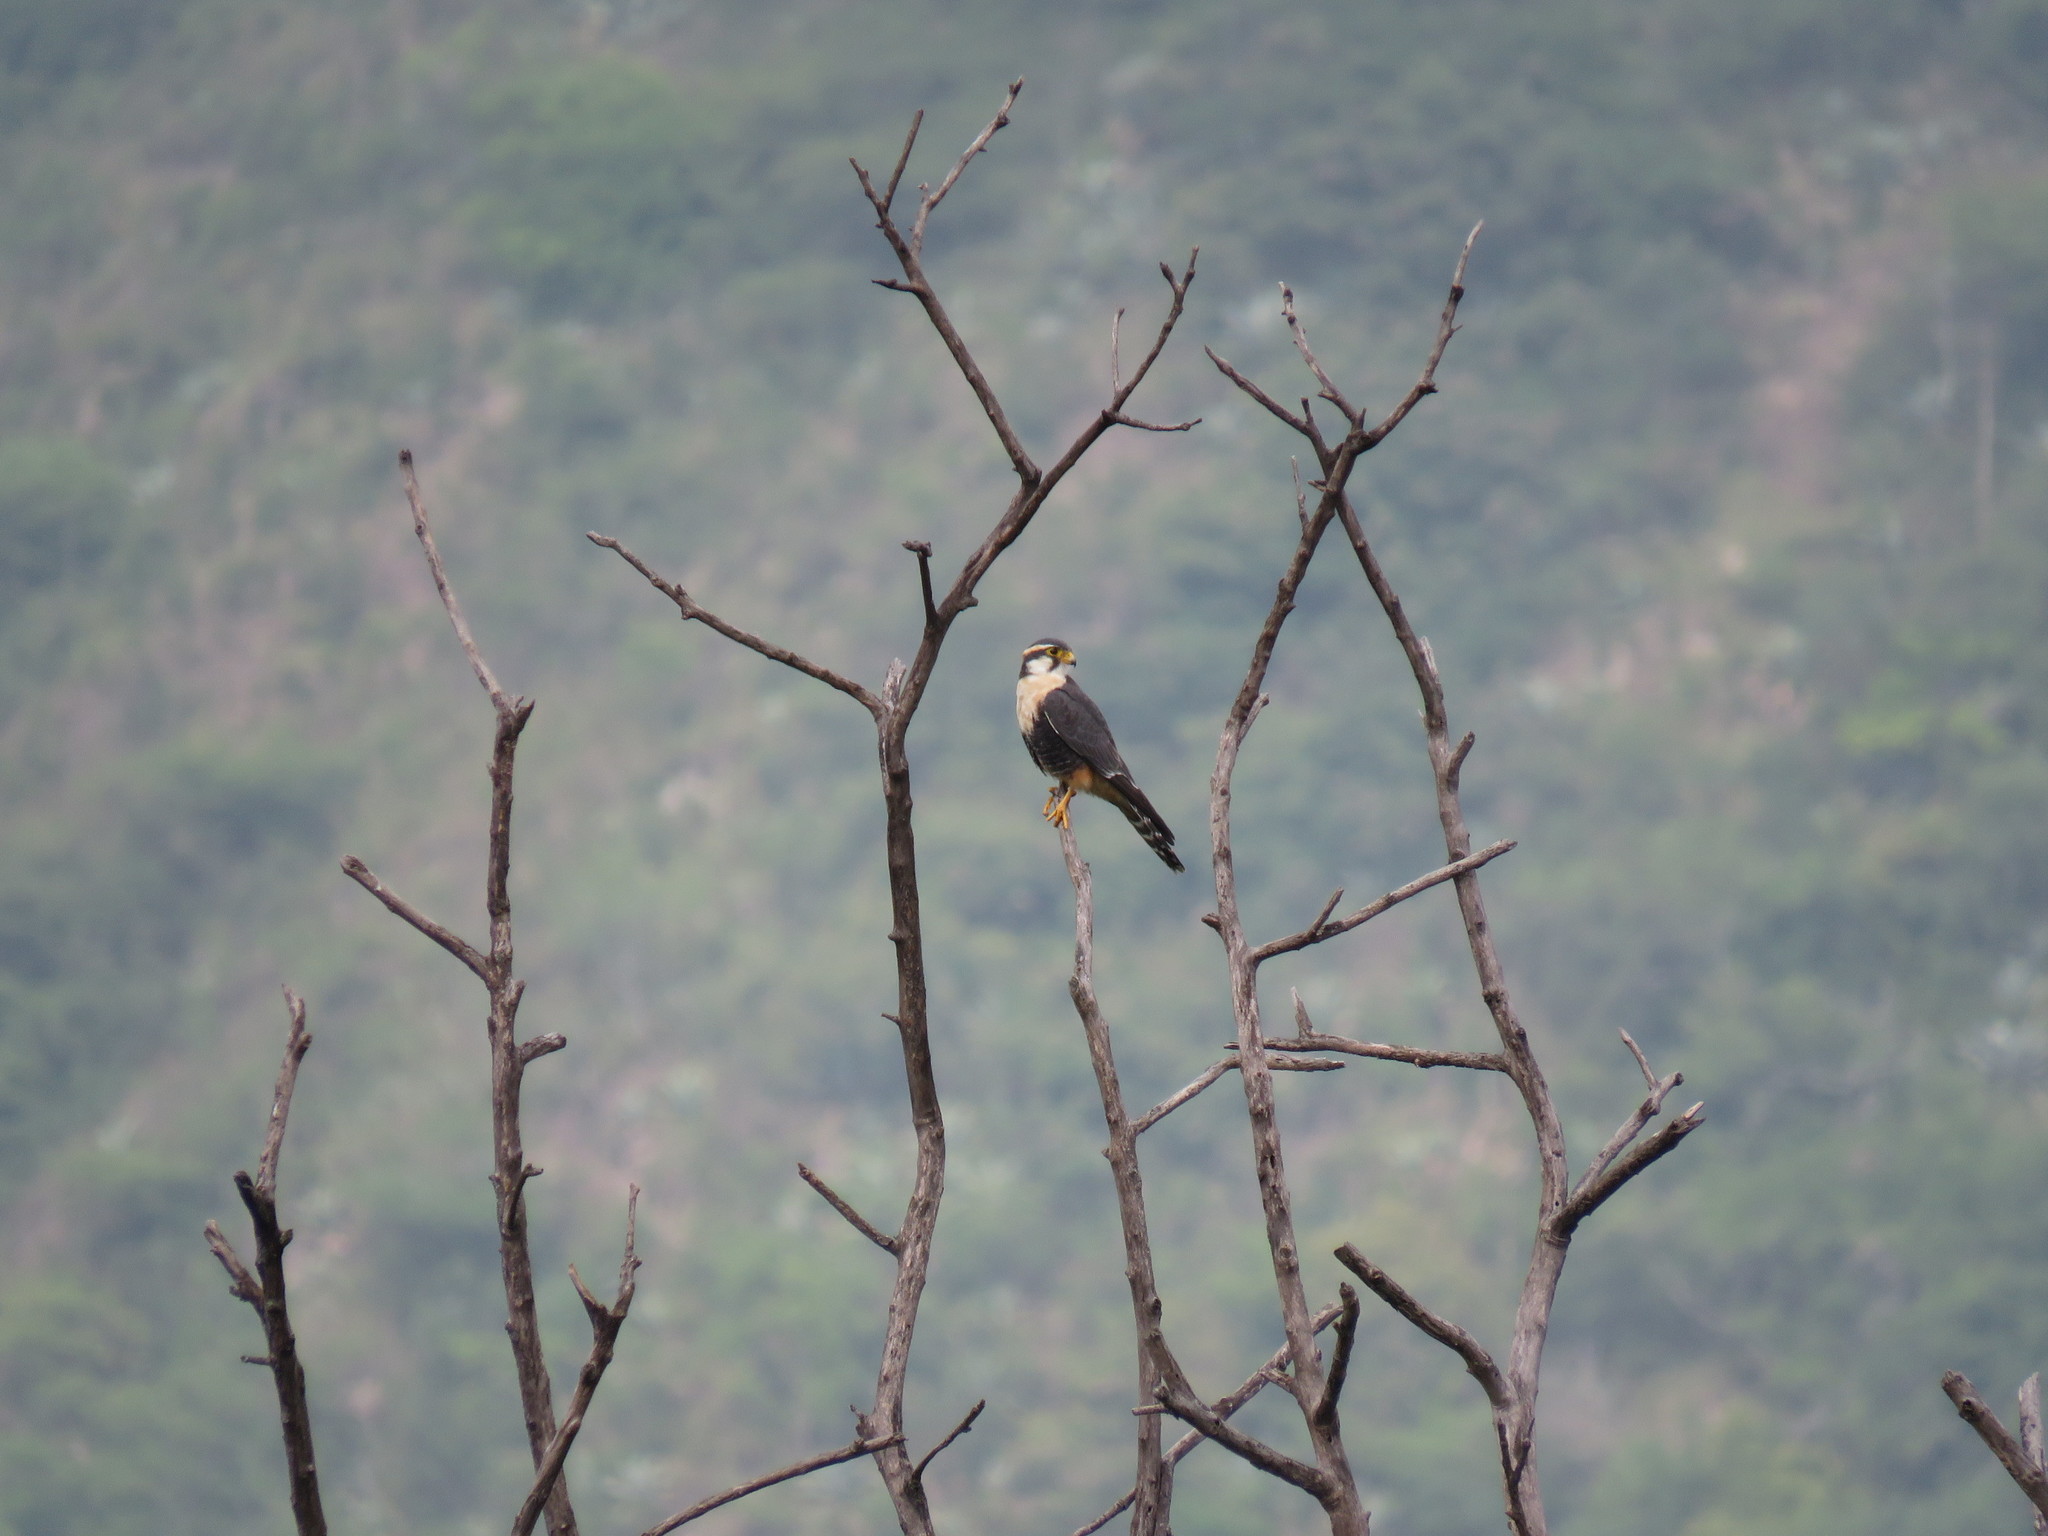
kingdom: Animalia
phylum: Chordata
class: Aves
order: Pelecaniformes
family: Ardeidae
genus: Egretta
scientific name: Egretta thula
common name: Snowy egret
